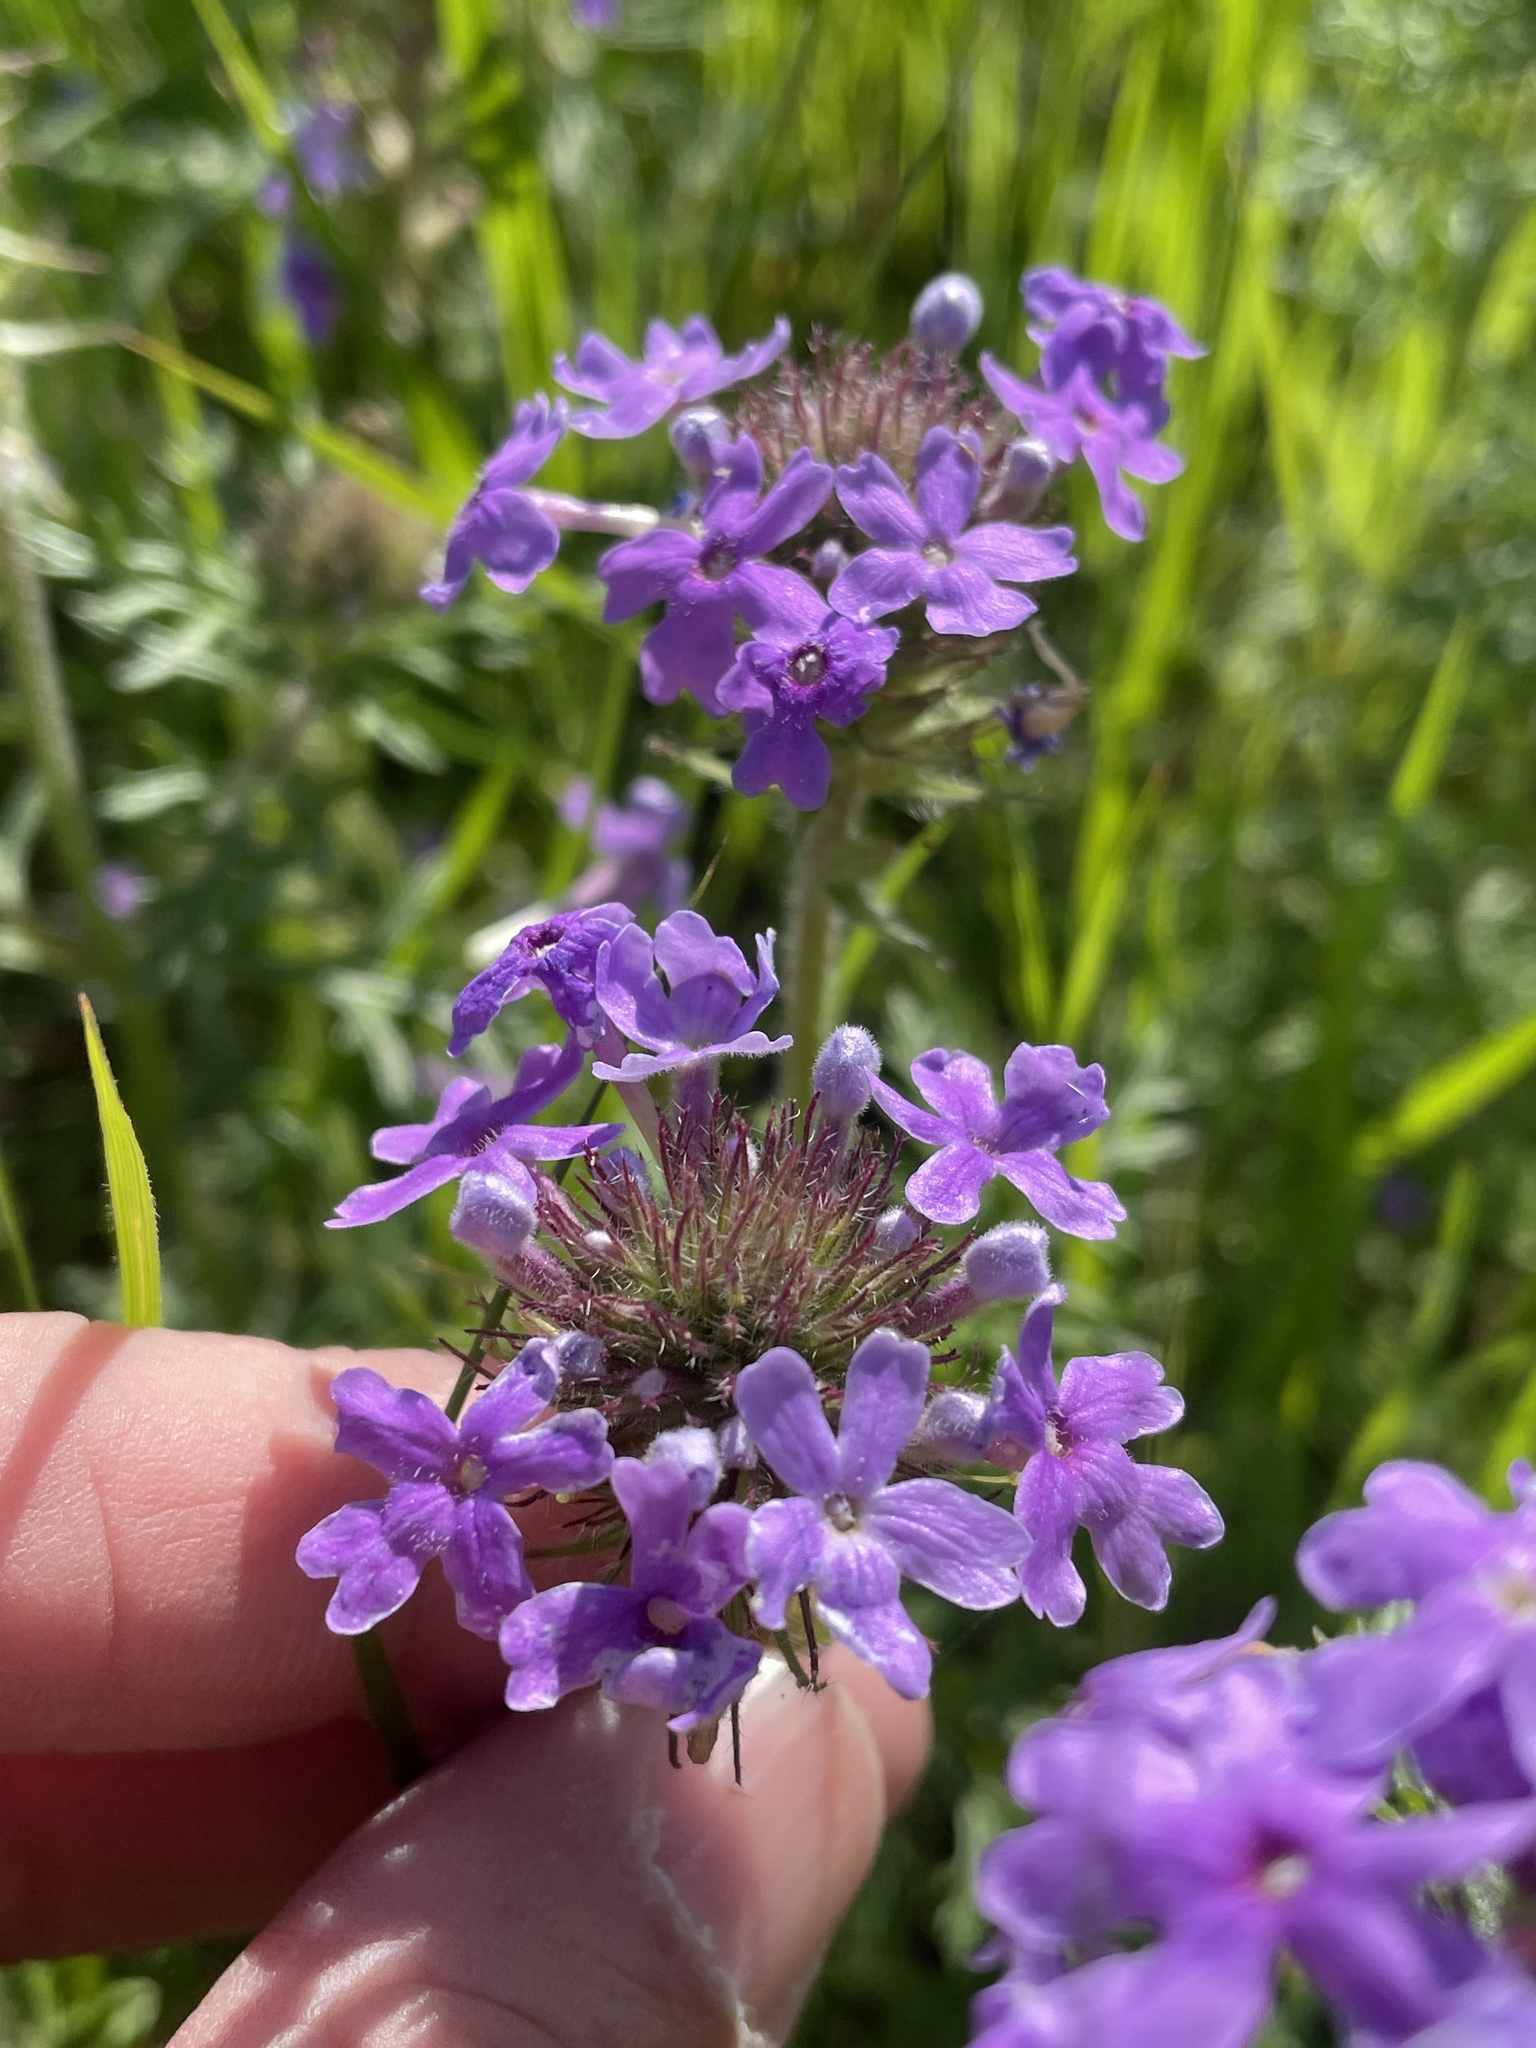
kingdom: Plantae
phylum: Tracheophyta
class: Magnoliopsida
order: Lamiales
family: Verbenaceae
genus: Verbena
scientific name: Verbena bipinnatifida
